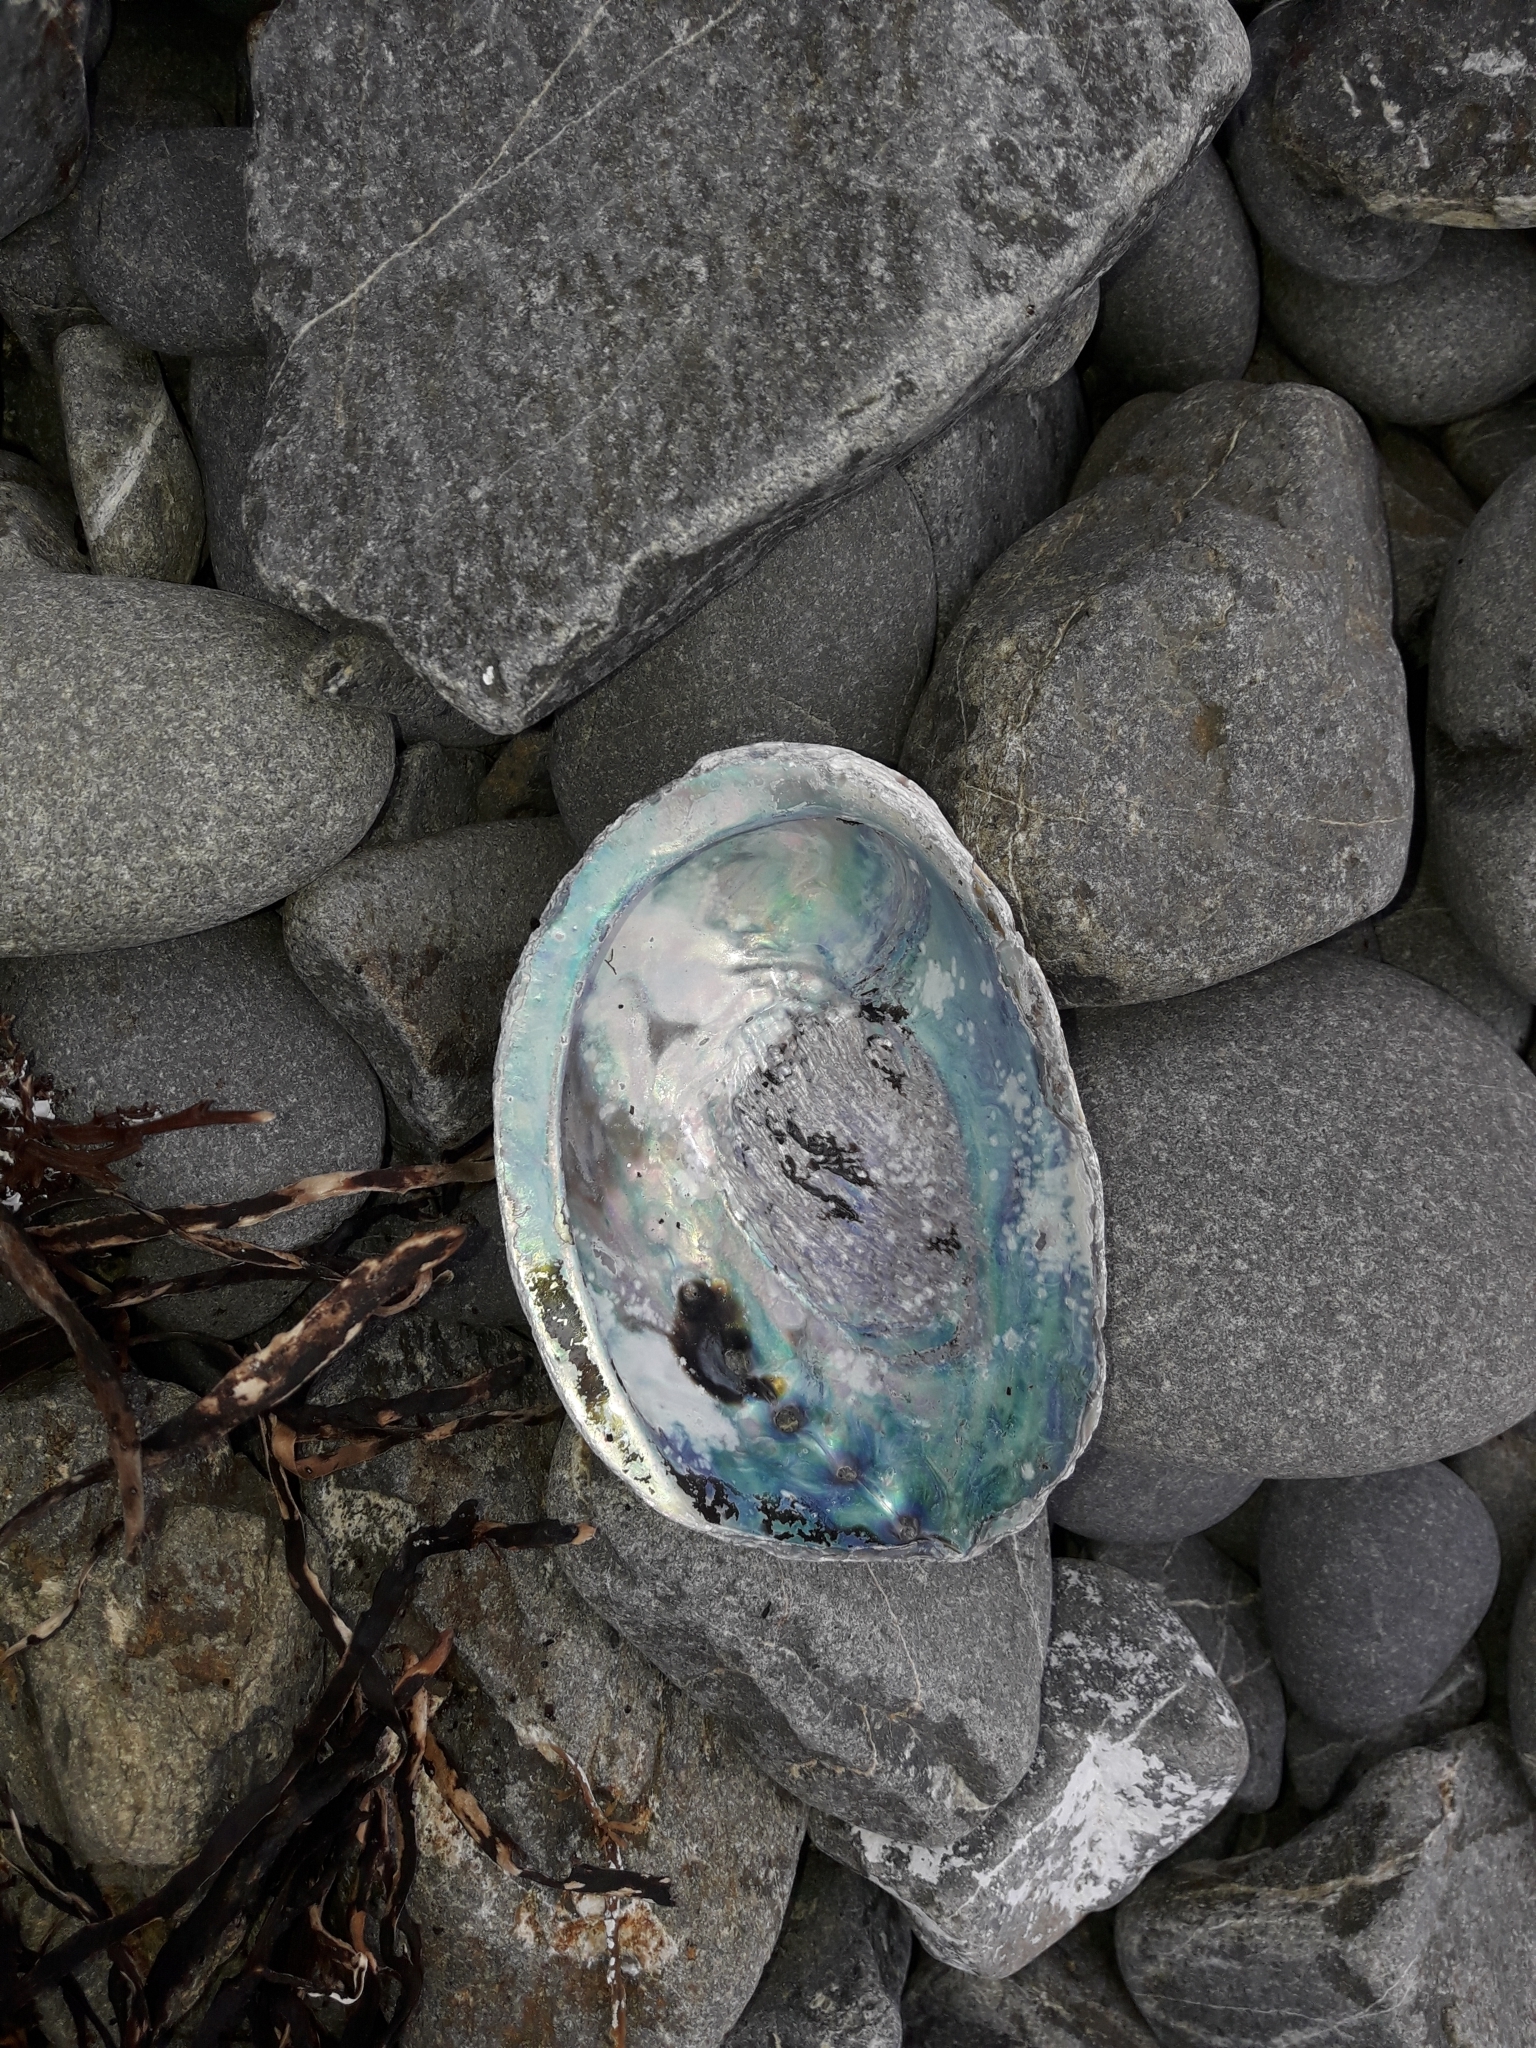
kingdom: Animalia
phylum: Mollusca
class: Gastropoda
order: Lepetellida
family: Haliotidae
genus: Haliotis
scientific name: Haliotis iris
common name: Abalone
